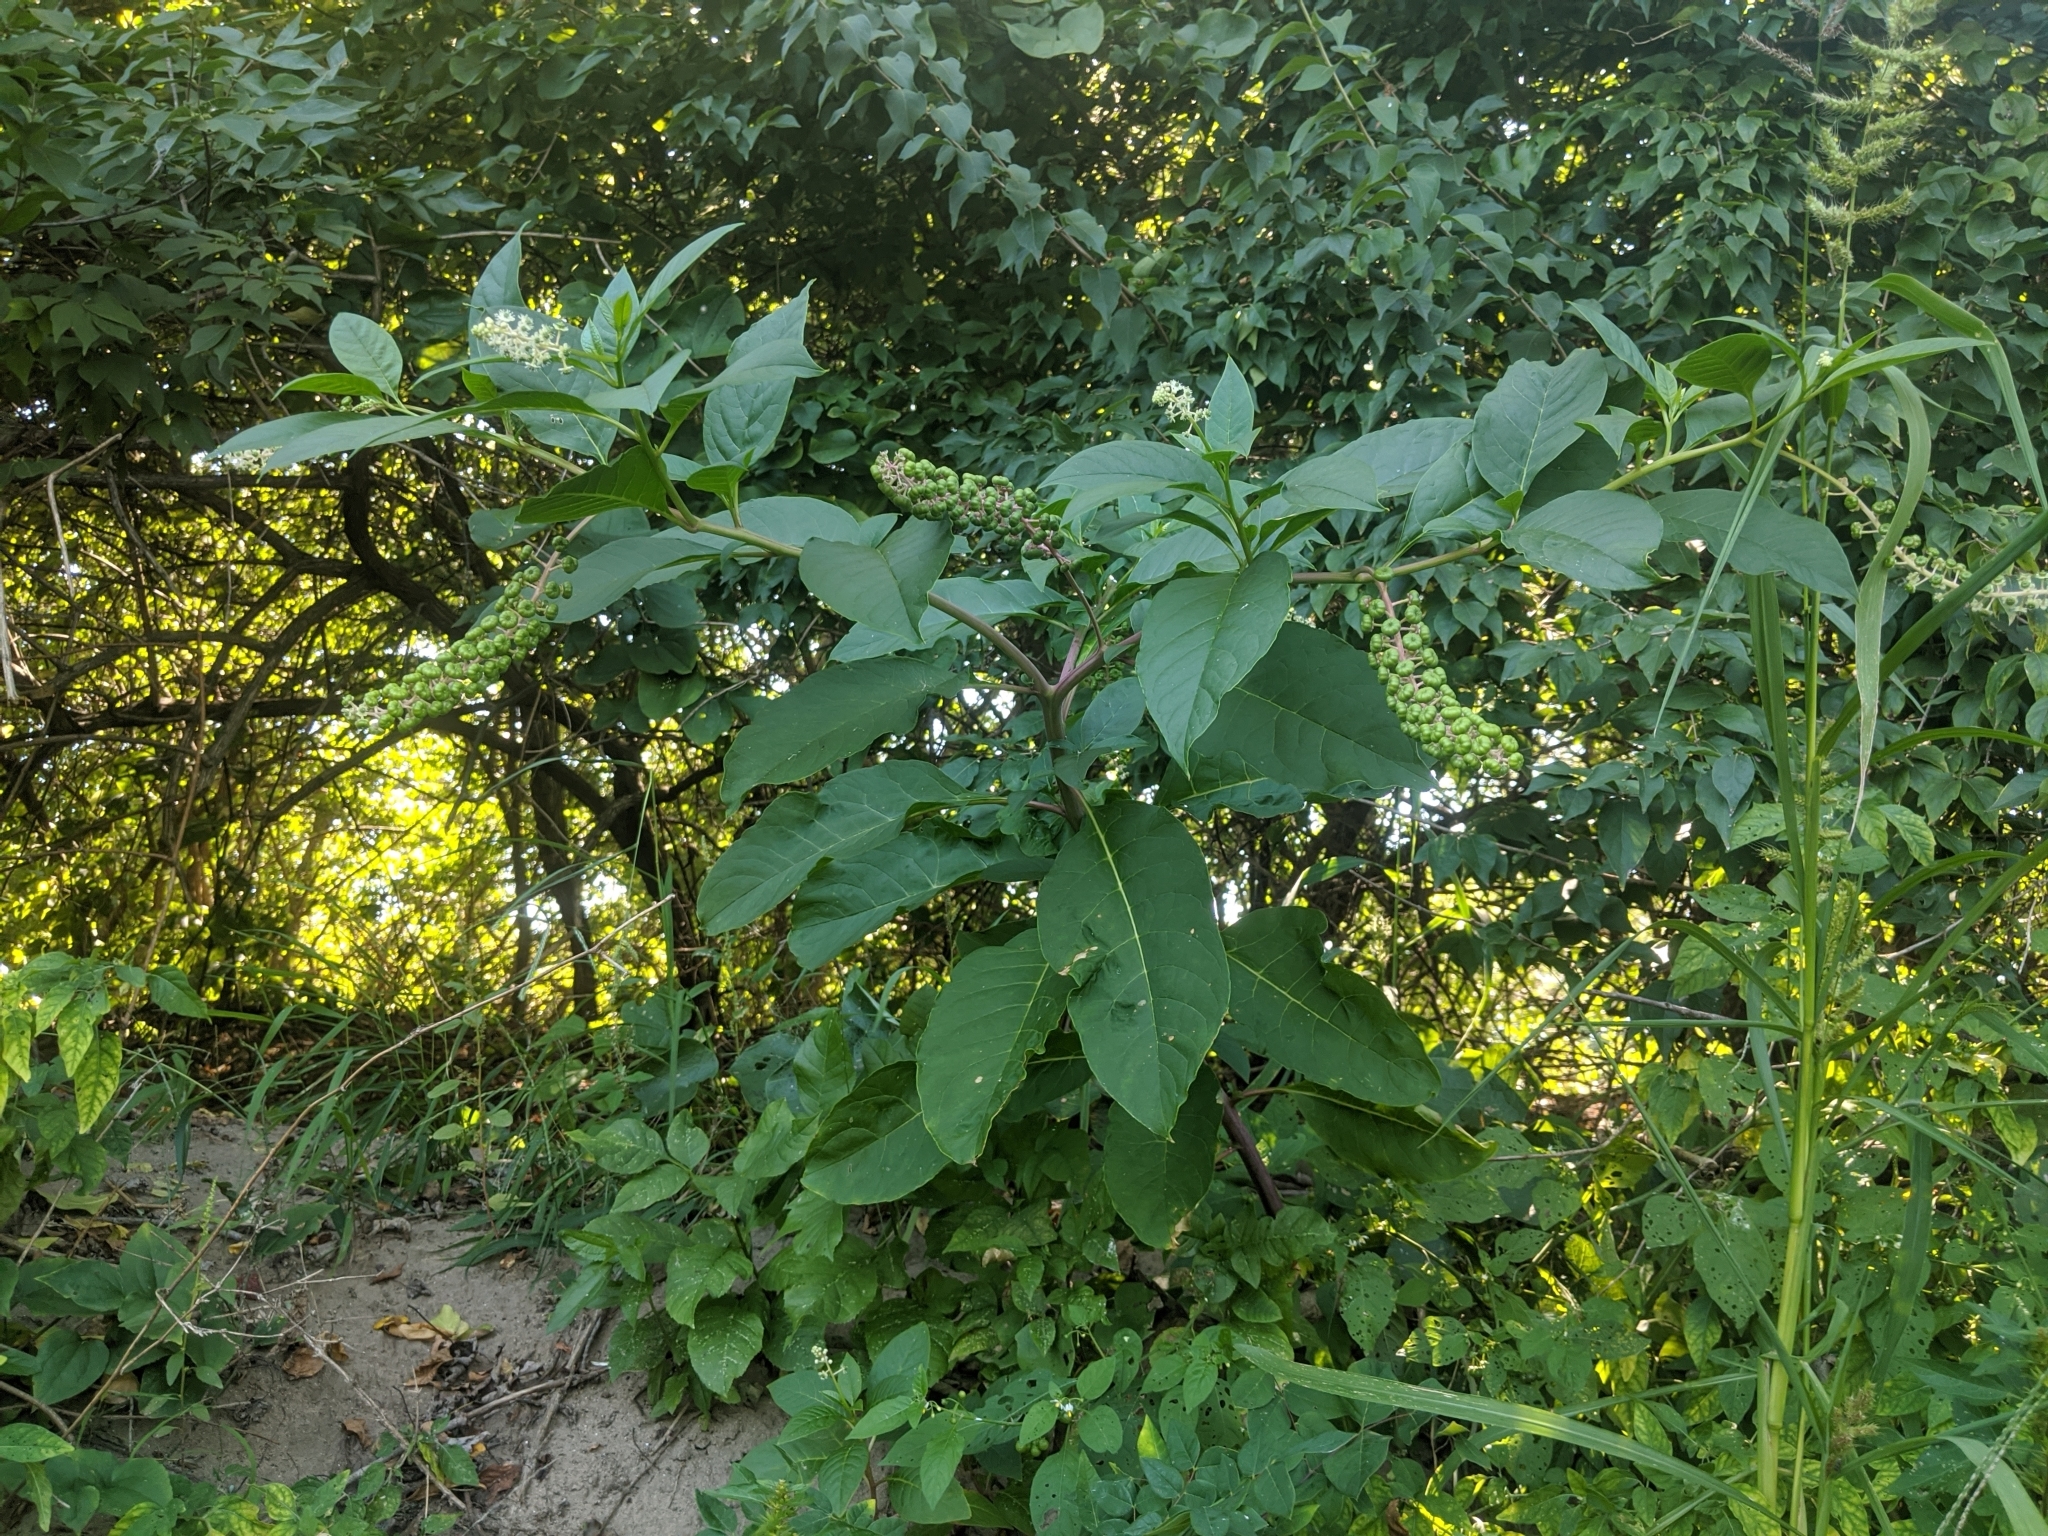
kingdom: Plantae
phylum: Tracheophyta
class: Magnoliopsida
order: Caryophyllales
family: Phytolaccaceae
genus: Phytolacca
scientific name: Phytolacca americana
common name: American pokeweed
